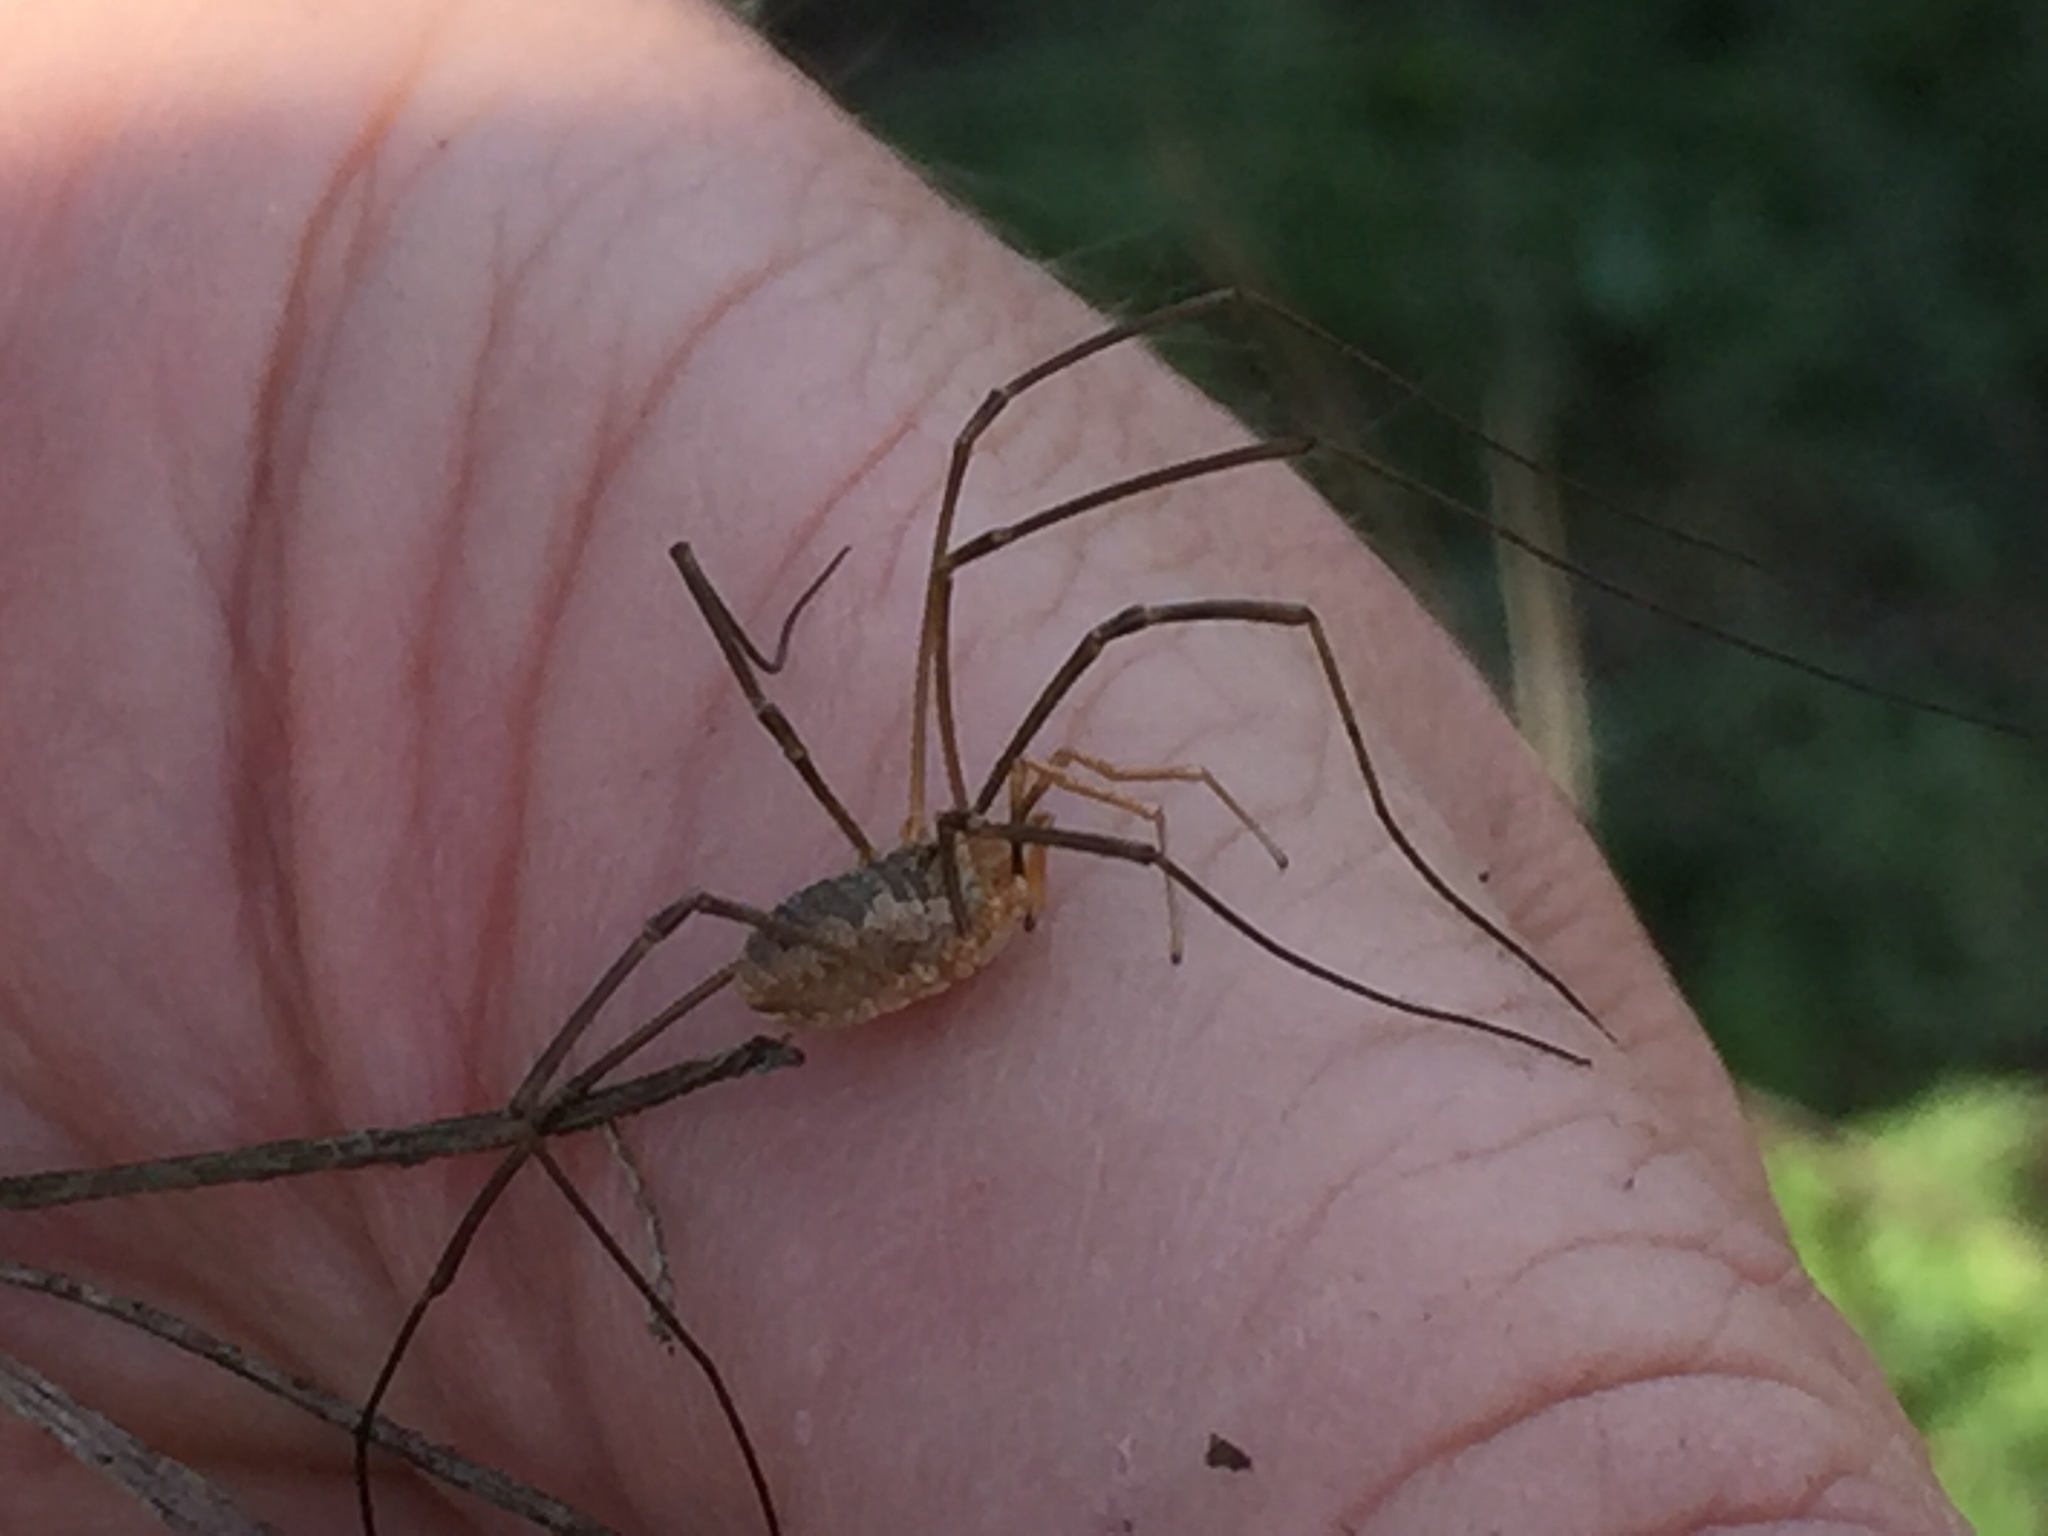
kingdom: Animalia
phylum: Arthropoda
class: Arachnida
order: Opiliones
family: Phalangiidae
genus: Phalangium
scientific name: Phalangium opilio
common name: Daddy longleg
